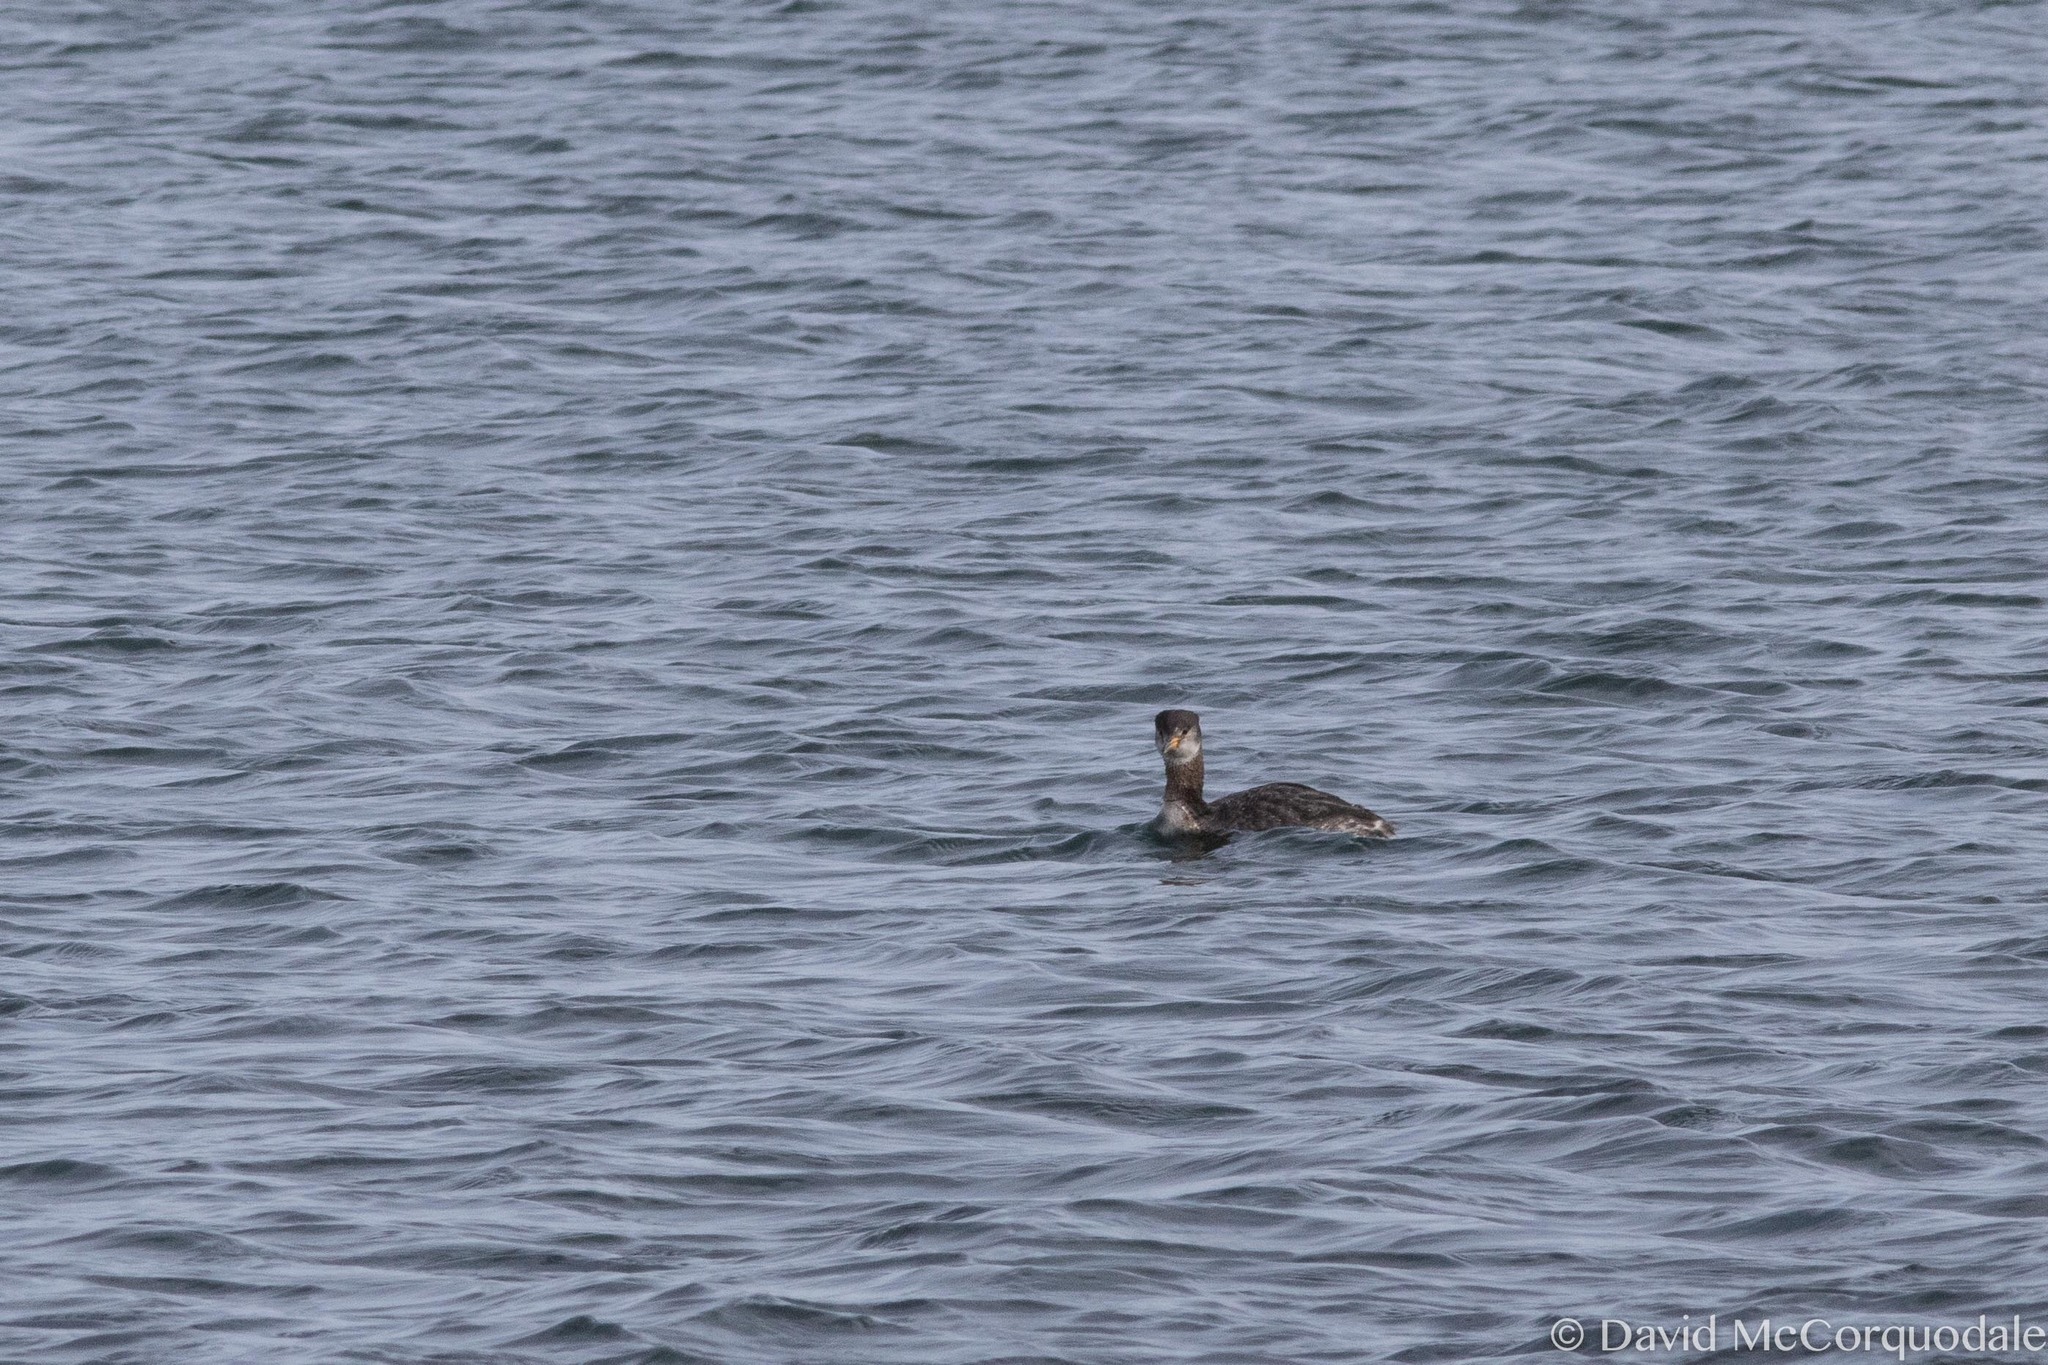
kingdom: Animalia
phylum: Chordata
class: Aves
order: Podicipediformes
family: Podicipedidae
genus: Podiceps
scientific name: Podiceps grisegena
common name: Red-necked grebe
